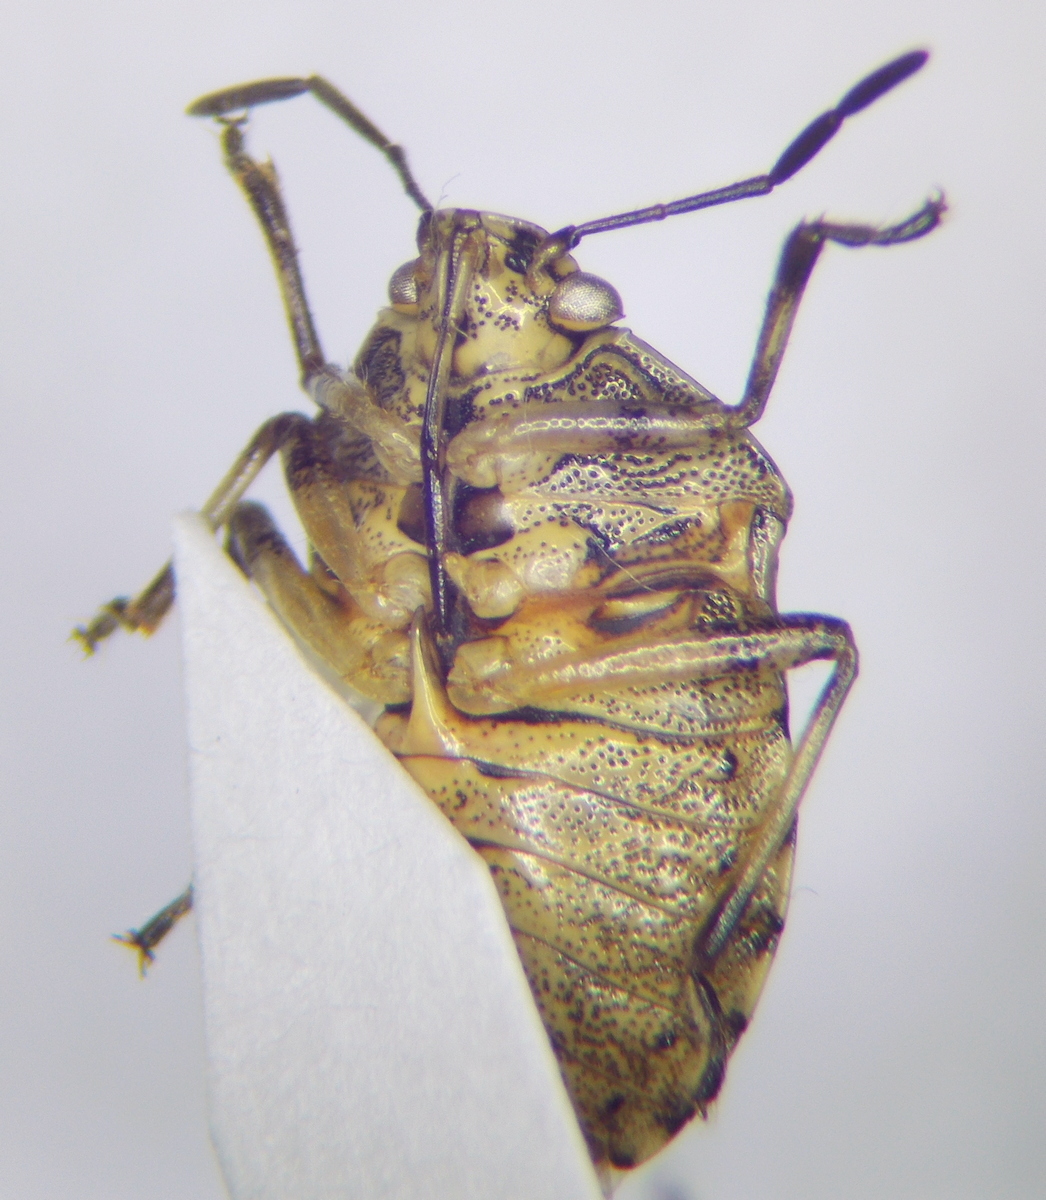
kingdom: Animalia
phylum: Arthropoda
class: Insecta
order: Hemiptera
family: Pentatomidae
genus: Menida
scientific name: Menida musiva
